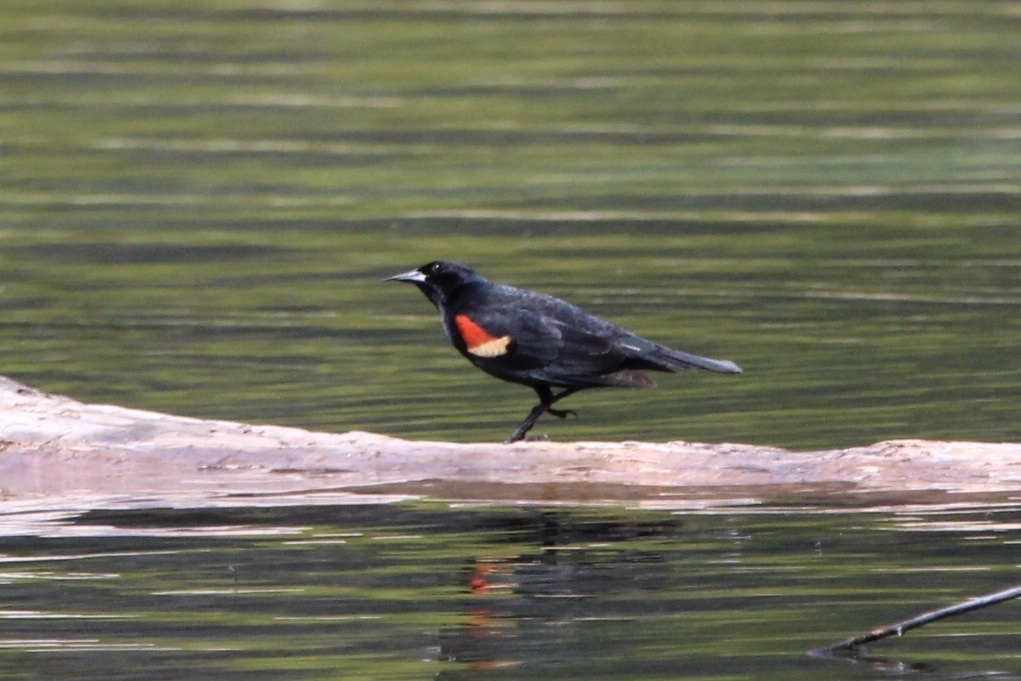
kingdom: Animalia
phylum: Chordata
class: Aves
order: Passeriformes
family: Icteridae
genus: Agelaius
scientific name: Agelaius phoeniceus
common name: Red-winged blackbird
